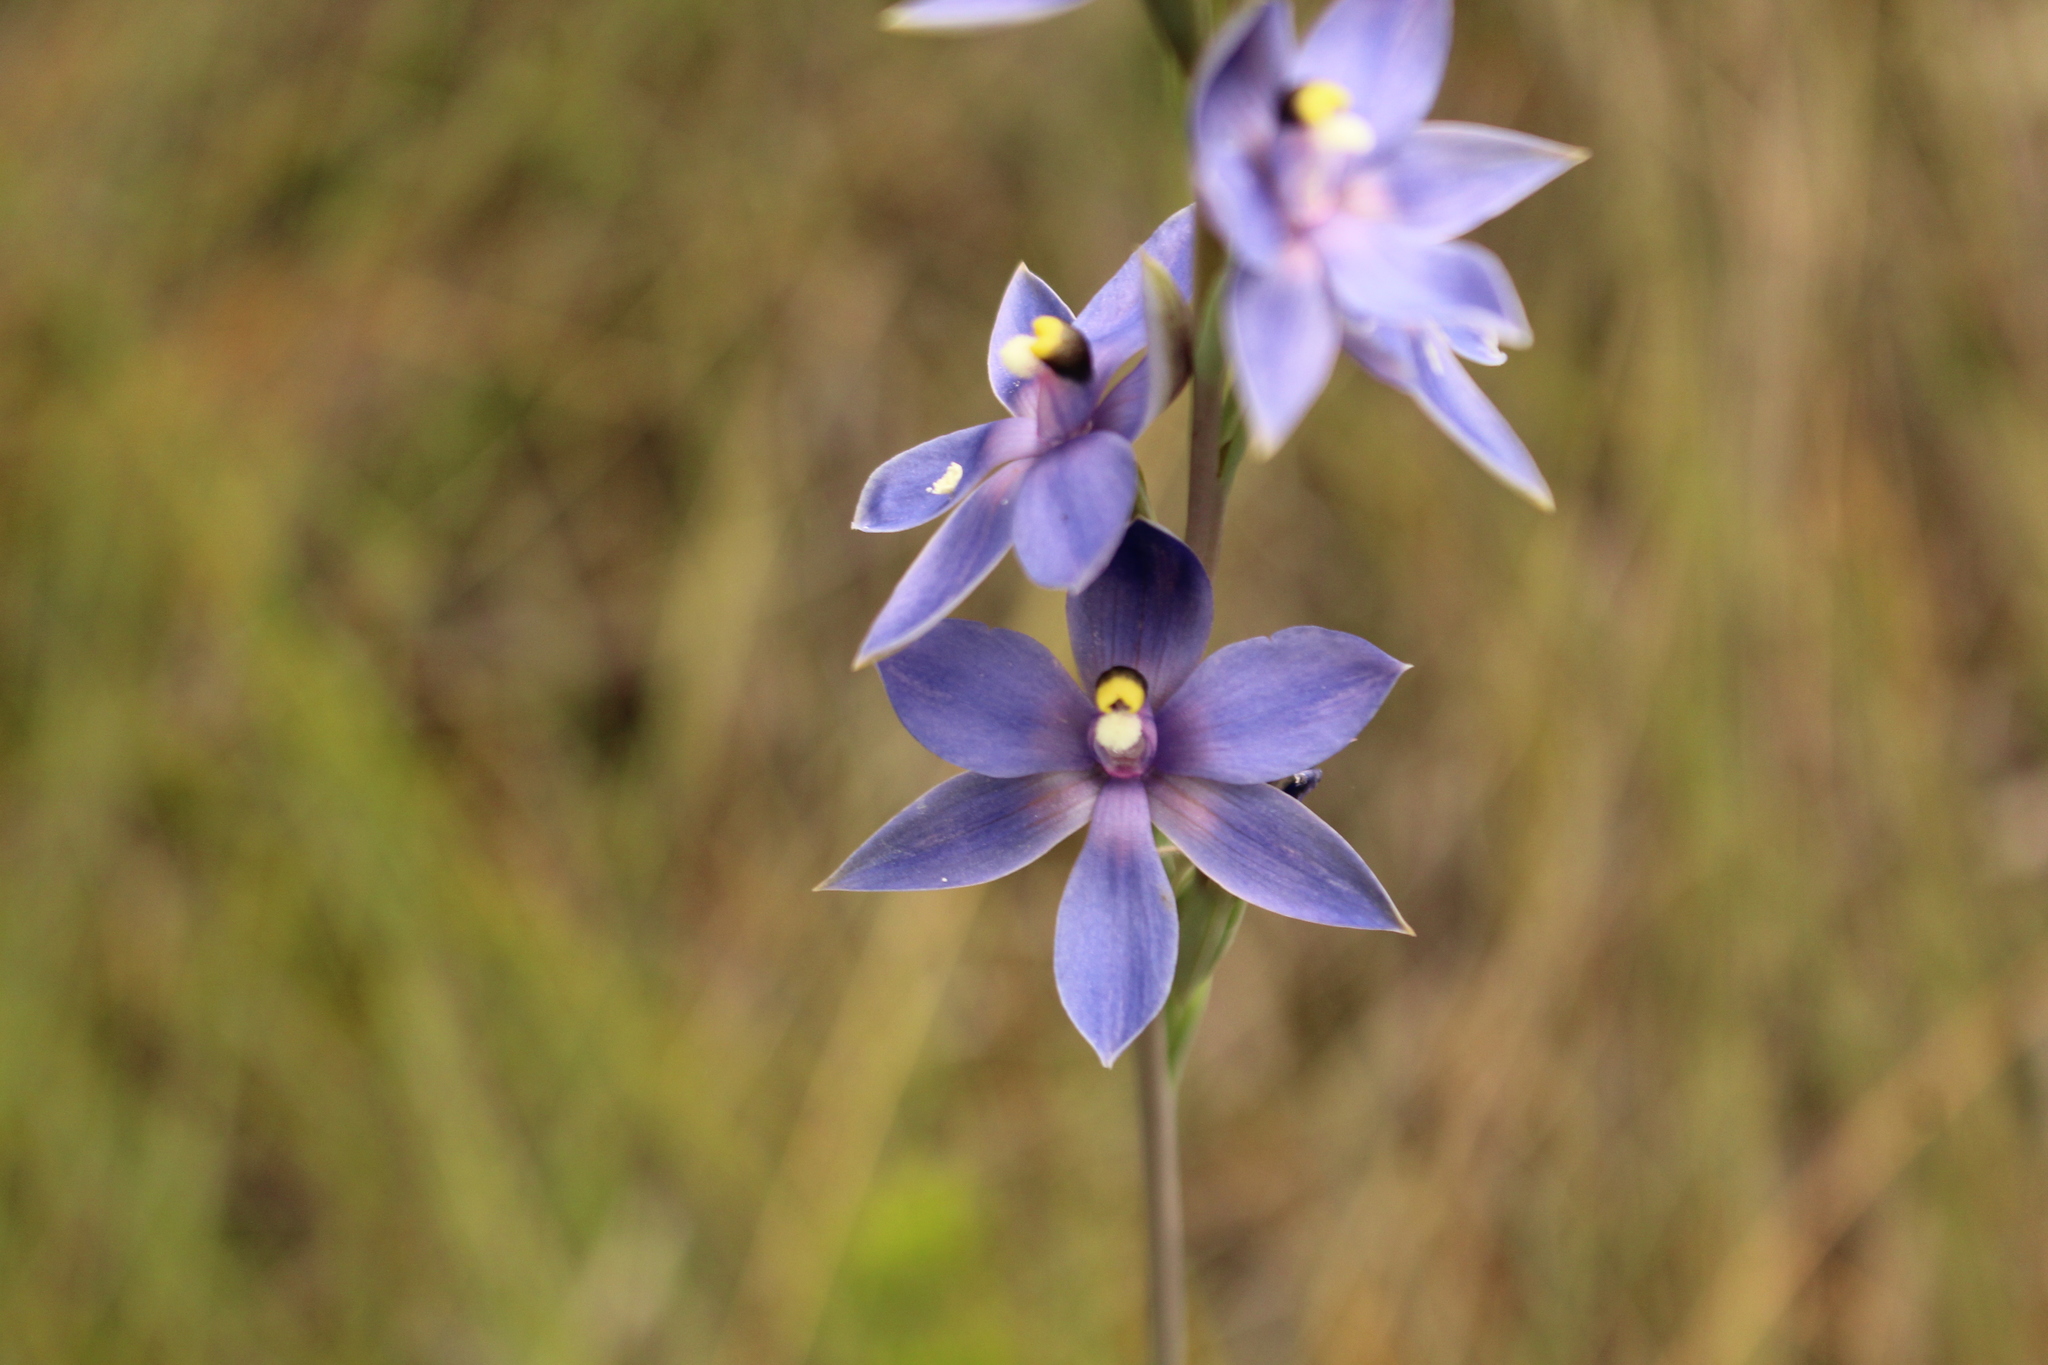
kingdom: Plantae
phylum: Tracheophyta
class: Liliopsida
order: Asparagales
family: Orchidaceae
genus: Thelymitra
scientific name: Thelymitra macrophylla
